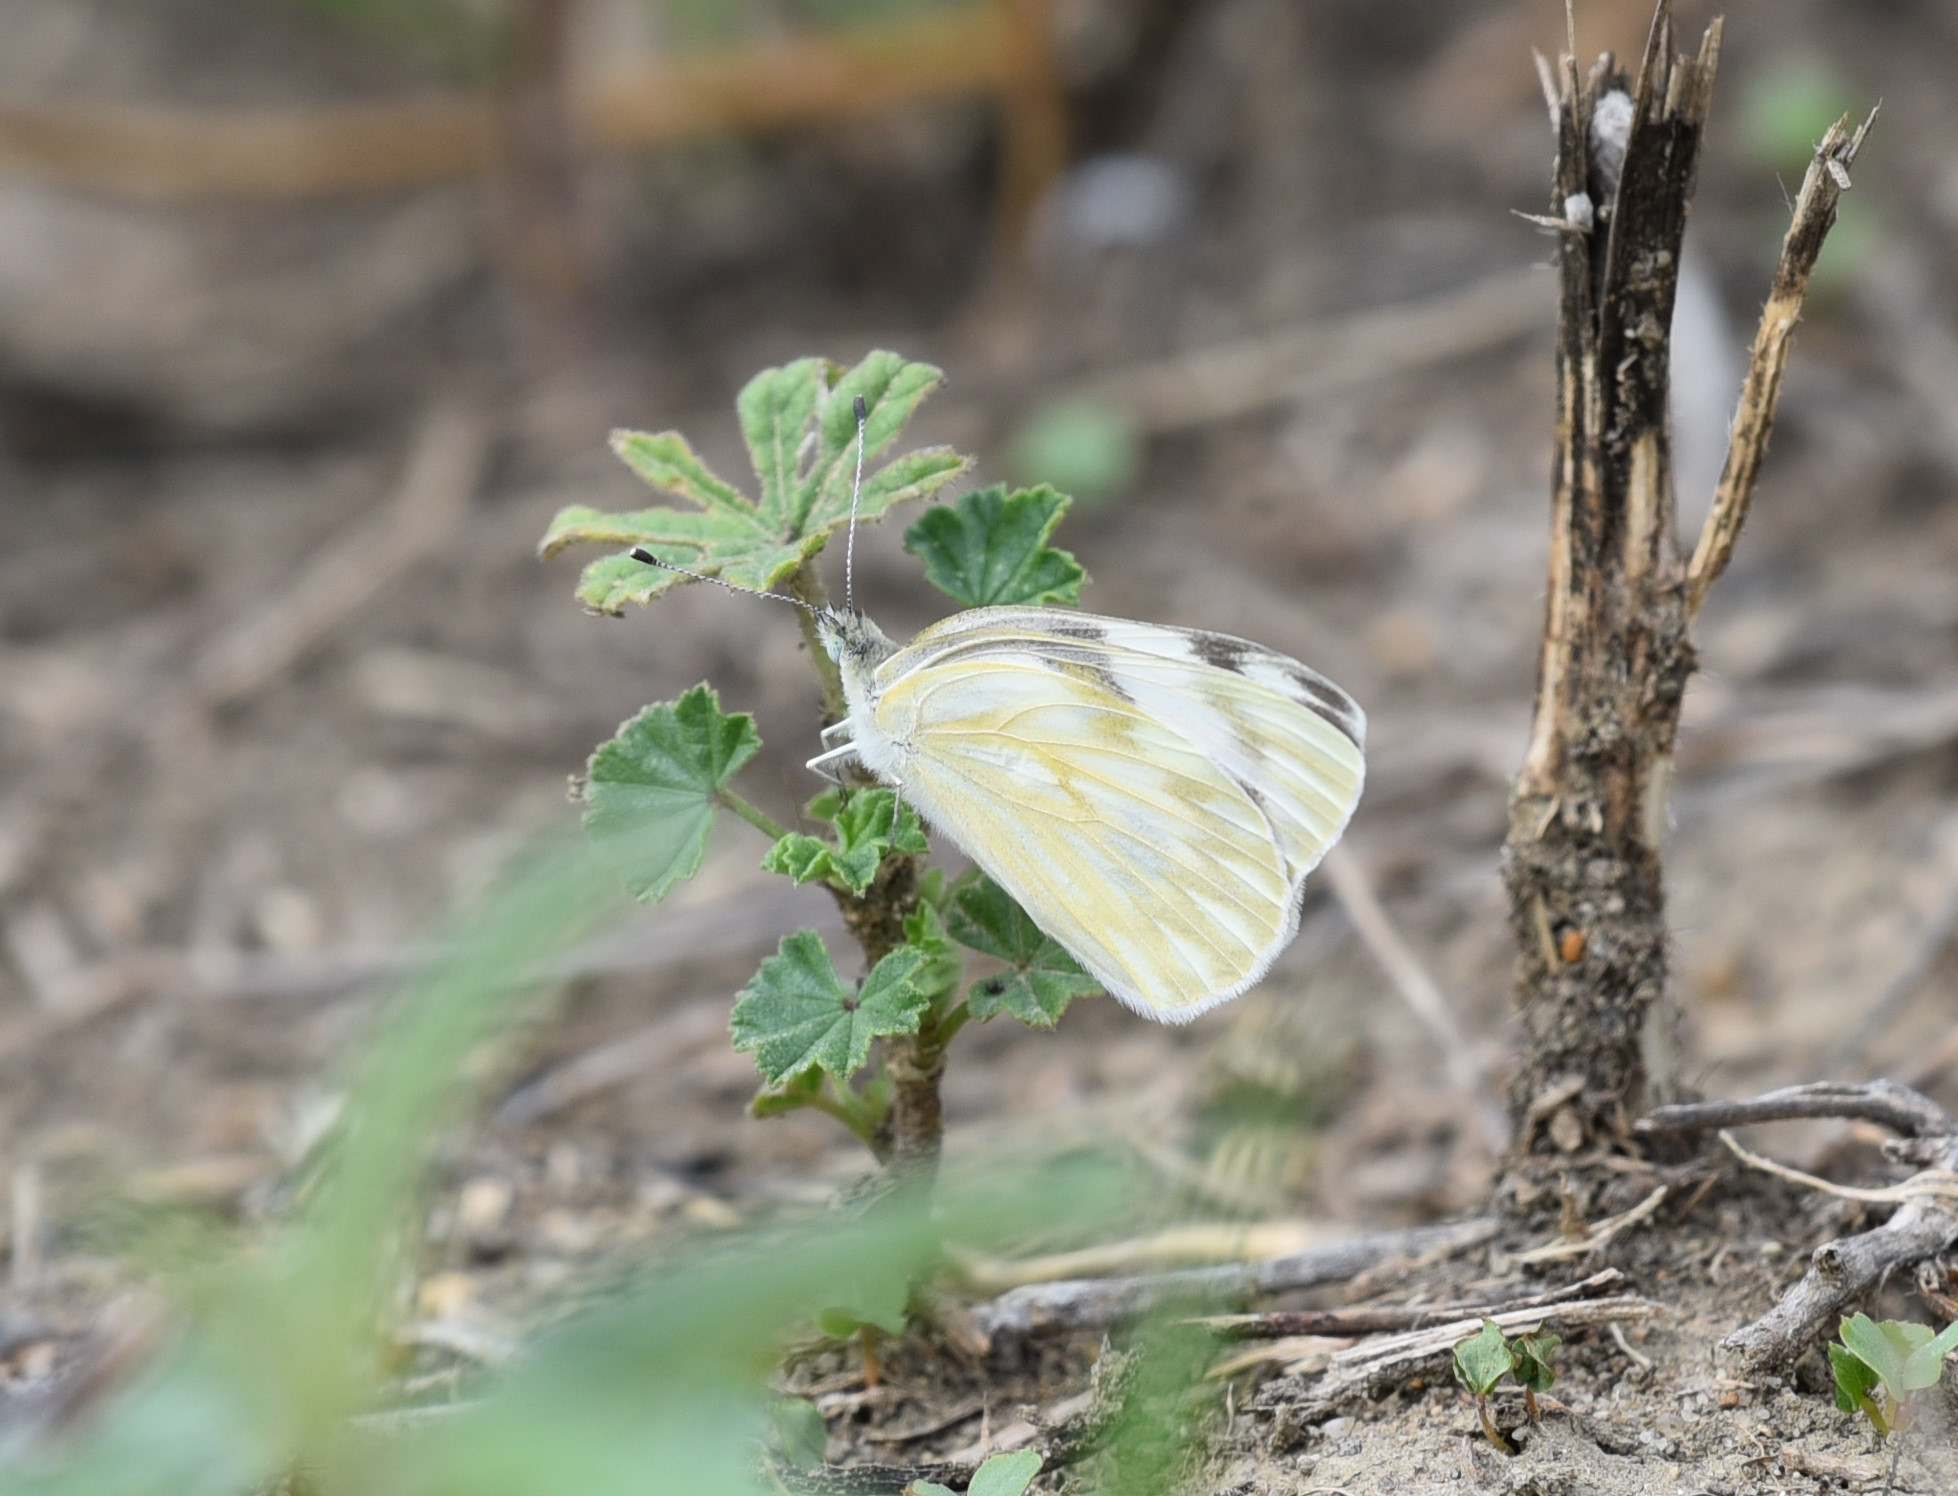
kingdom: Animalia
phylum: Arthropoda
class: Insecta
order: Lepidoptera
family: Pieridae
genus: Pontia
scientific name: Pontia protodice
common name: Checkered white
